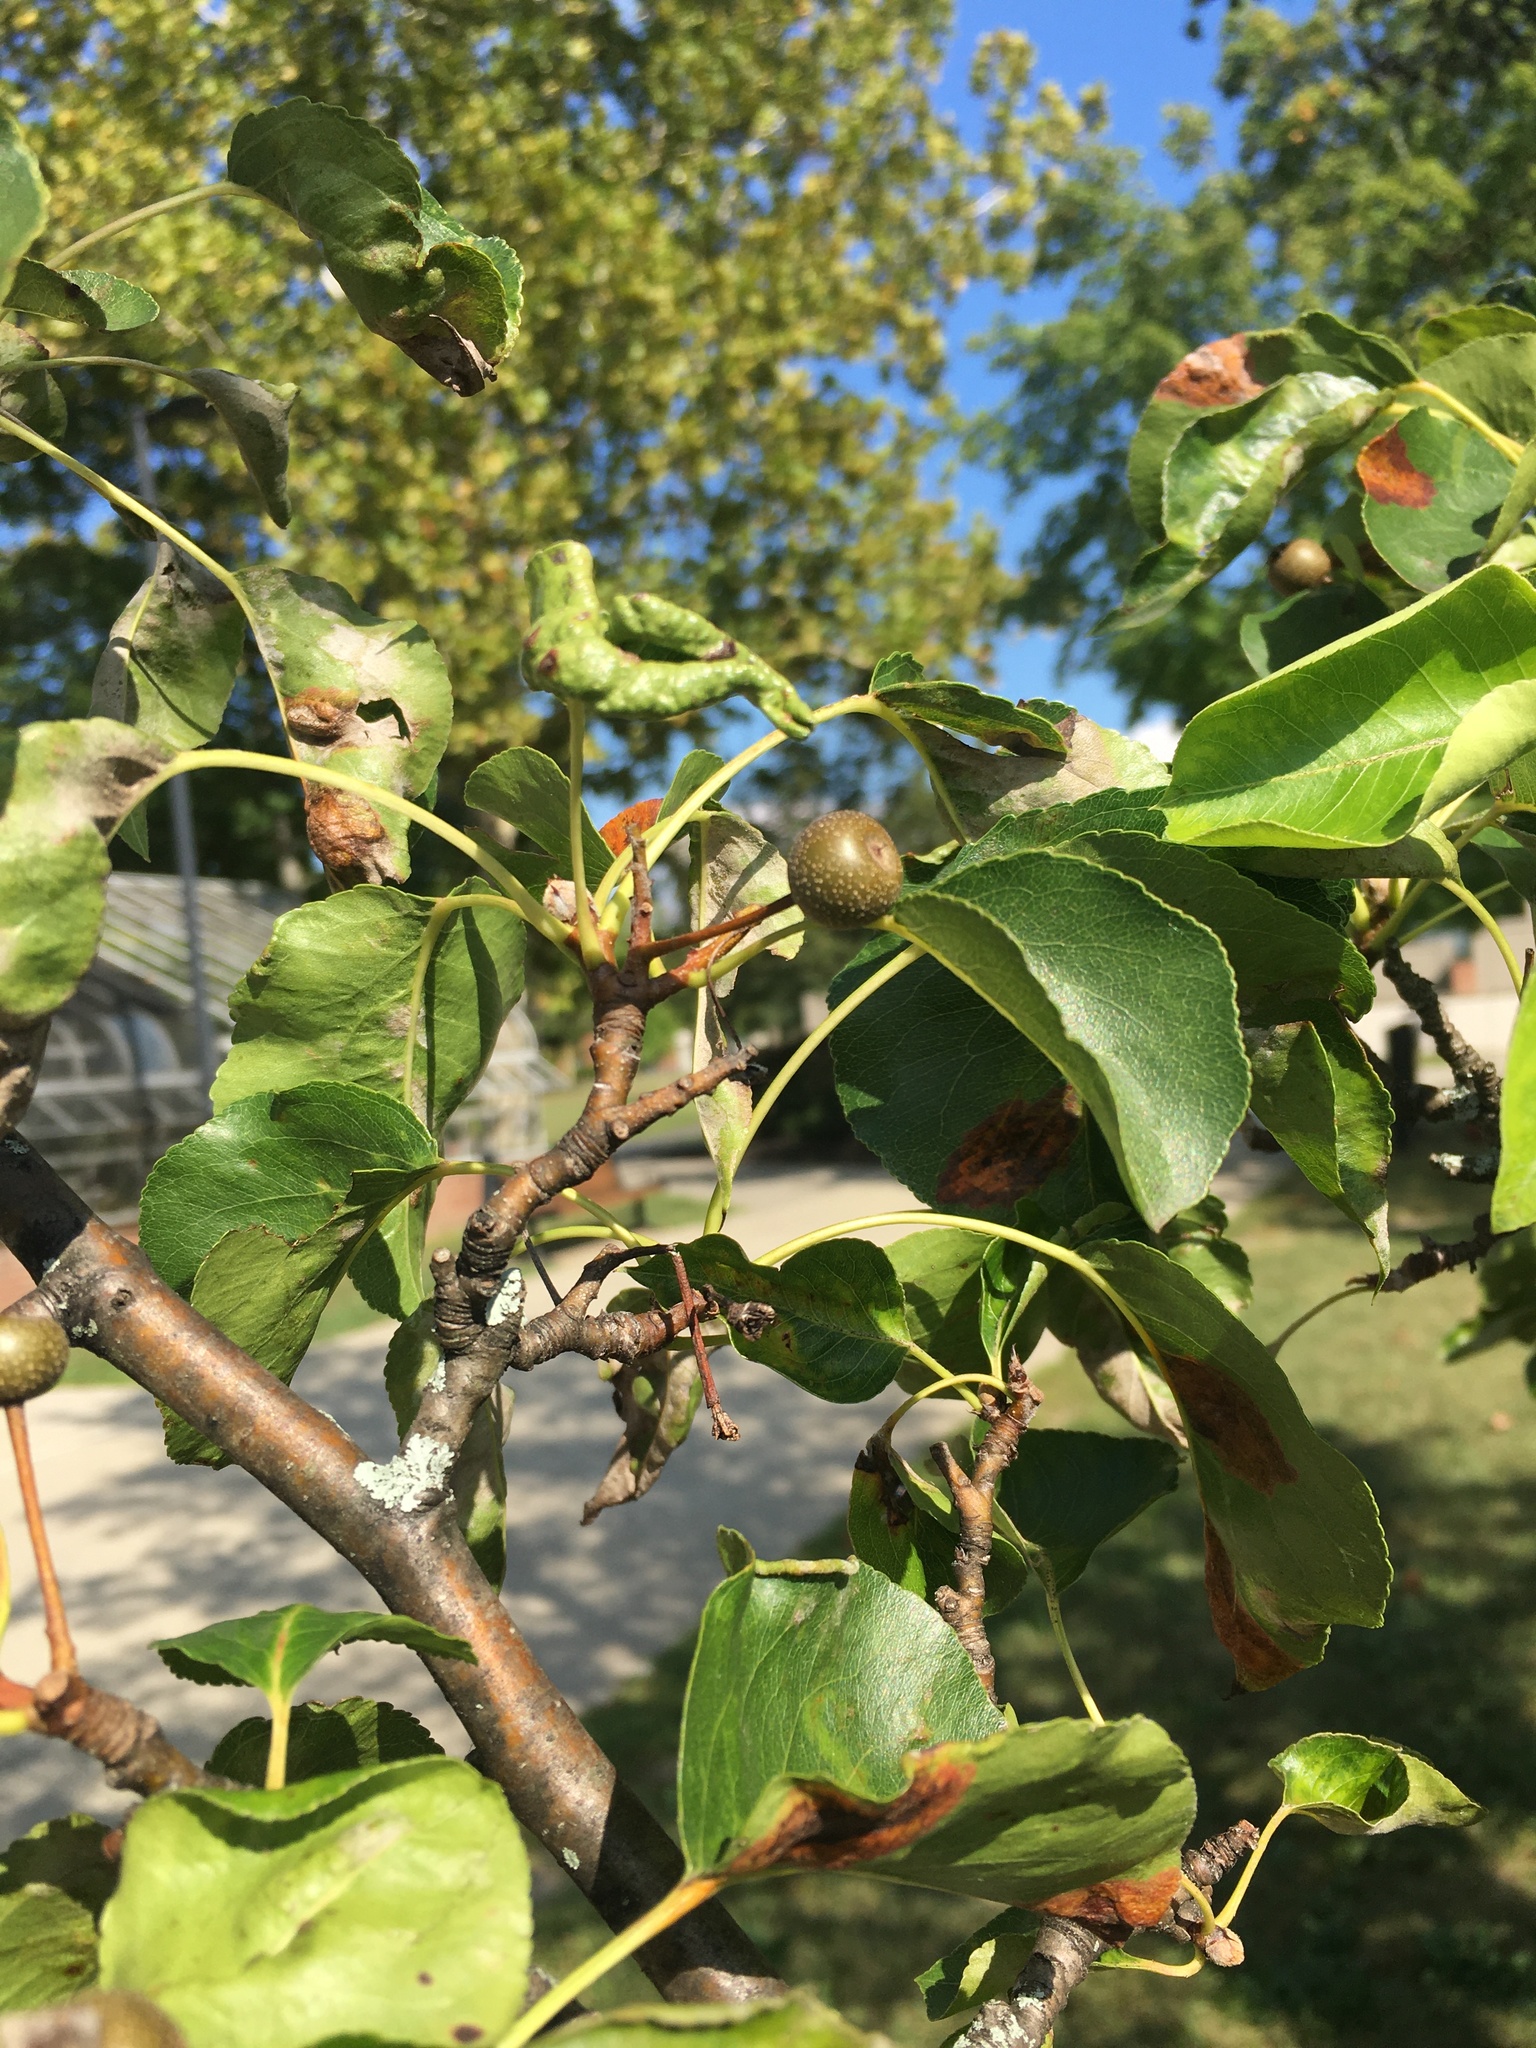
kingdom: Plantae
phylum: Tracheophyta
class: Magnoliopsida
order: Rosales
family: Rosaceae
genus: Pyrus
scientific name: Pyrus calleryana
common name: Callery pear
